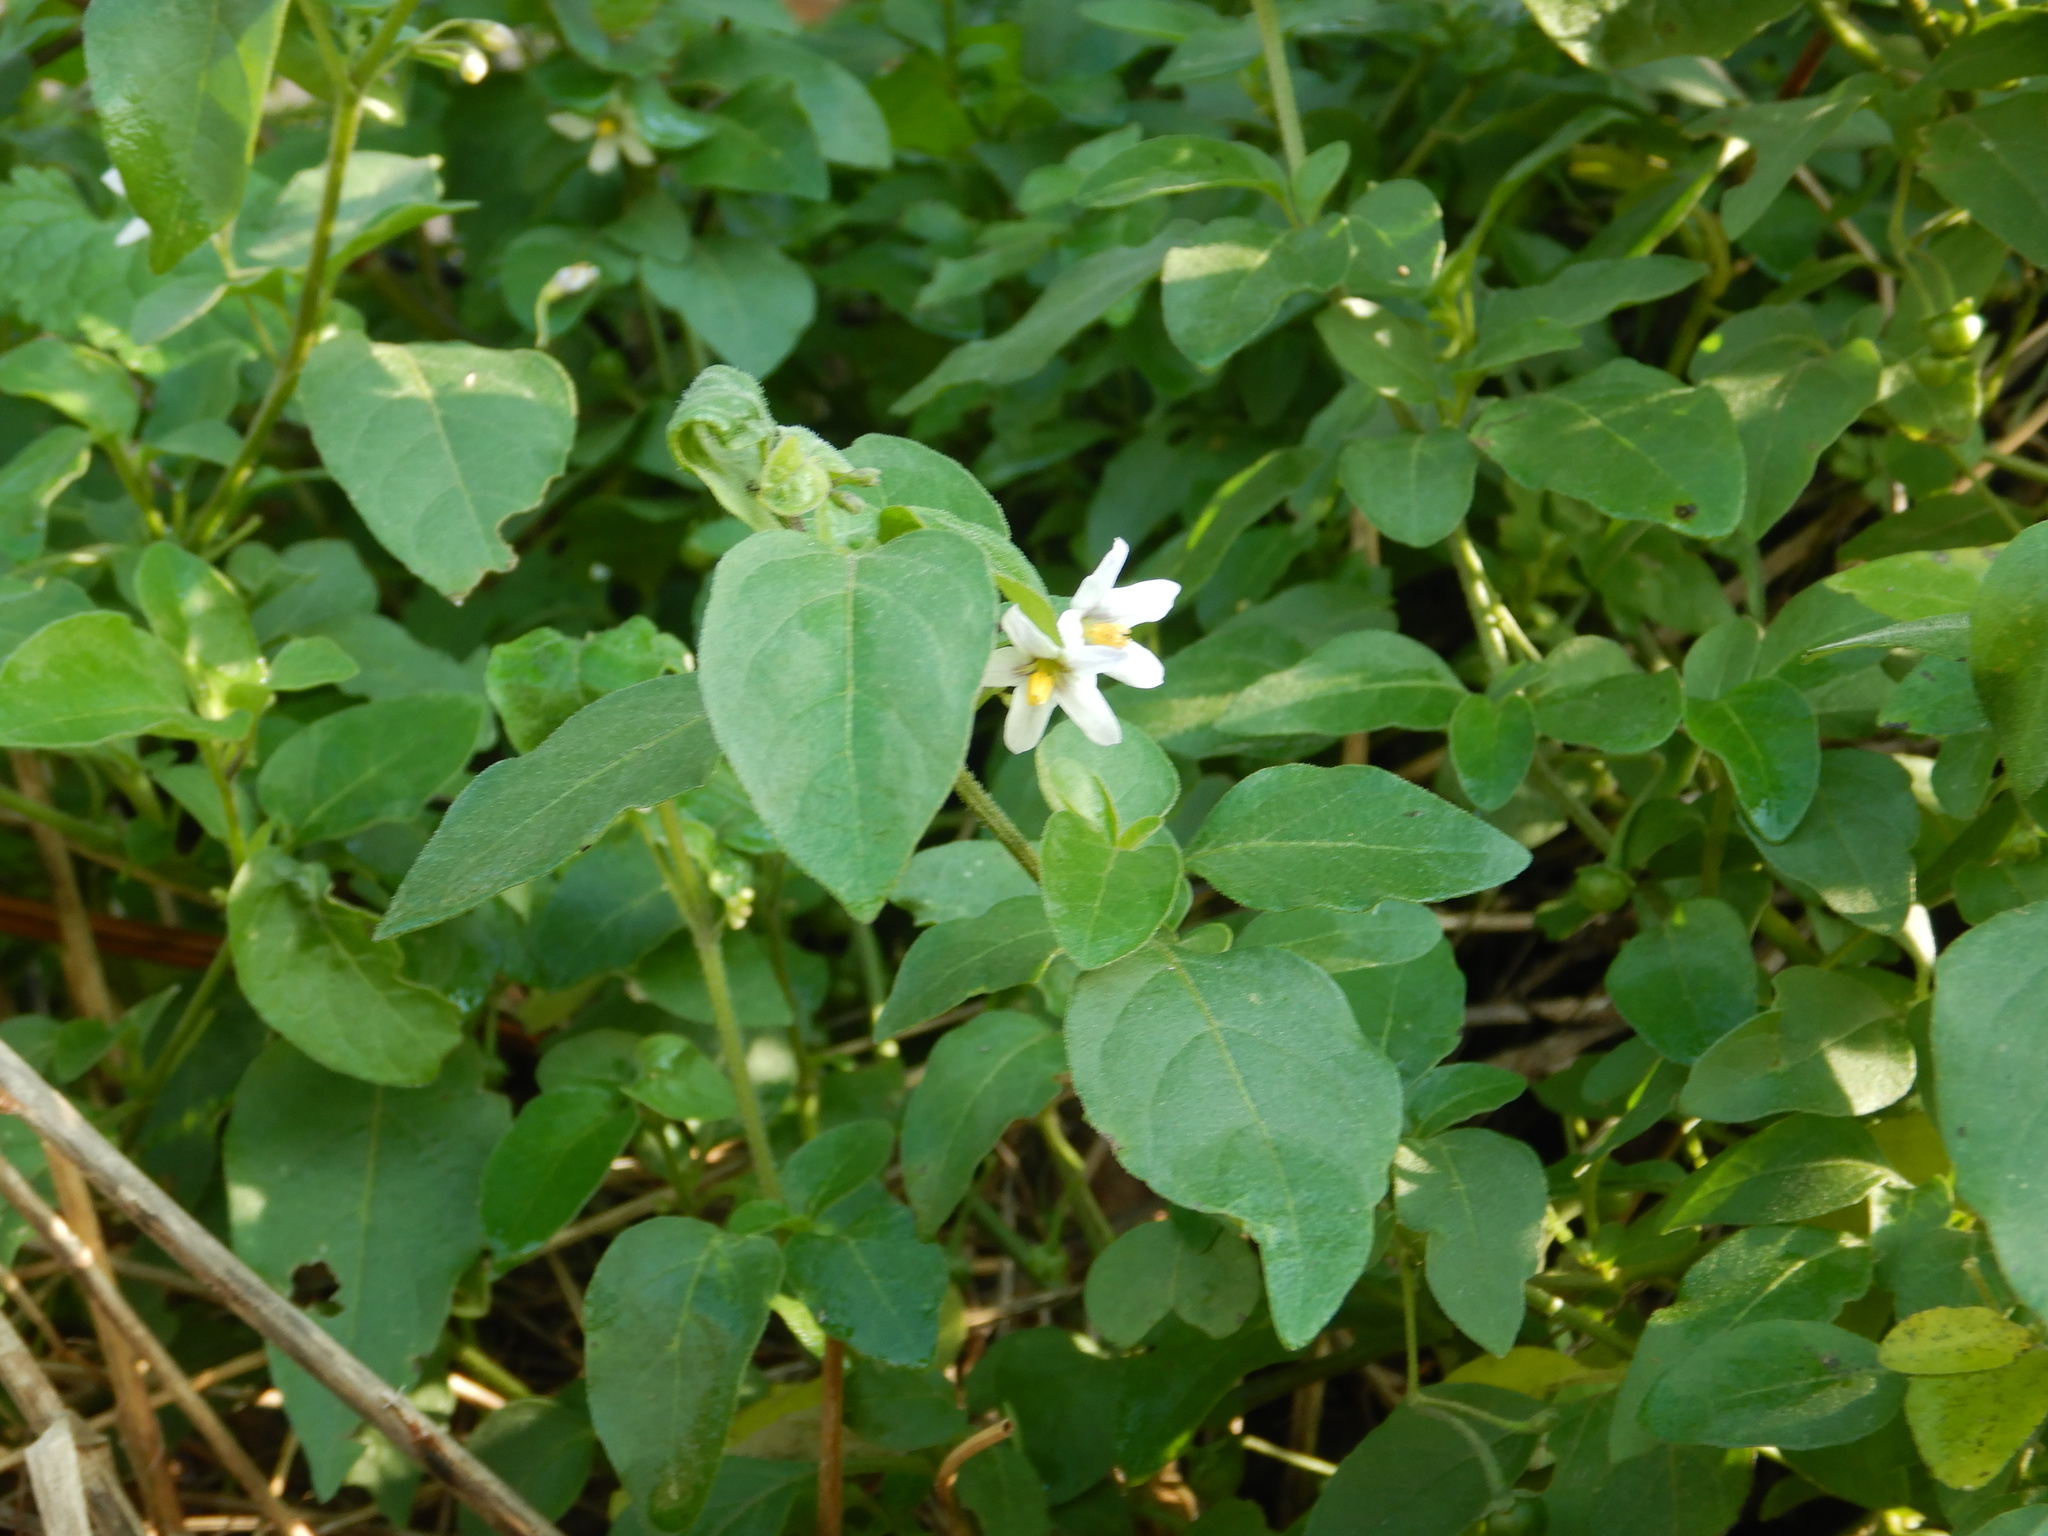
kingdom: Plantae
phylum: Tracheophyta
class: Magnoliopsida
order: Solanales
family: Solanaceae
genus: Solanum
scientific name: Solanum chenopodioides
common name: Tall nightshade
